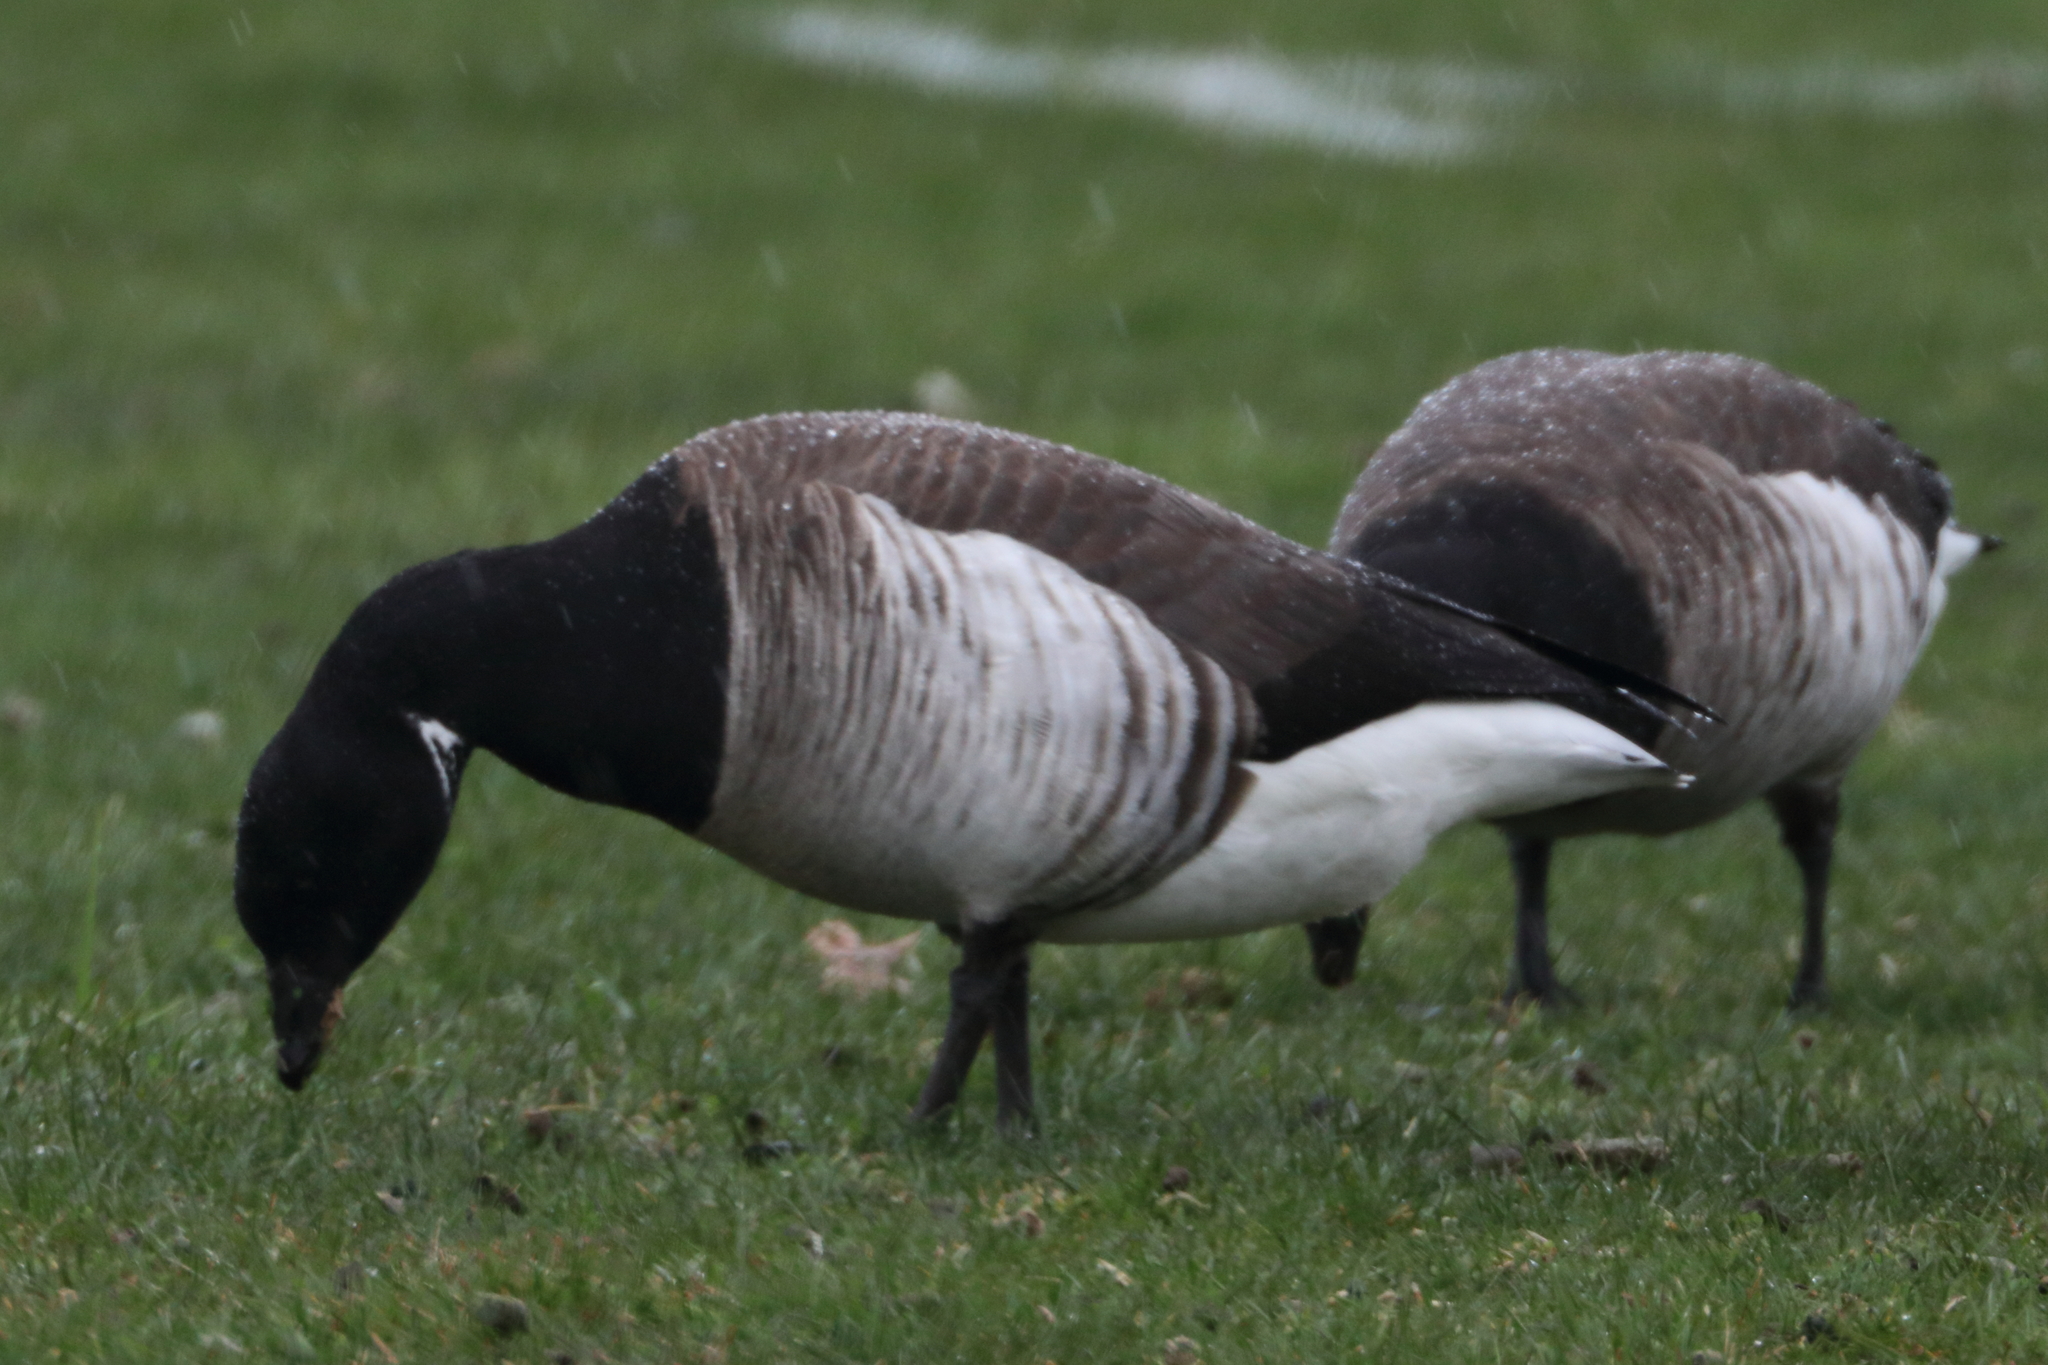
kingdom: Animalia
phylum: Chordata
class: Aves
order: Anseriformes
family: Anatidae
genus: Branta
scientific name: Branta bernicla
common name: Brant goose
